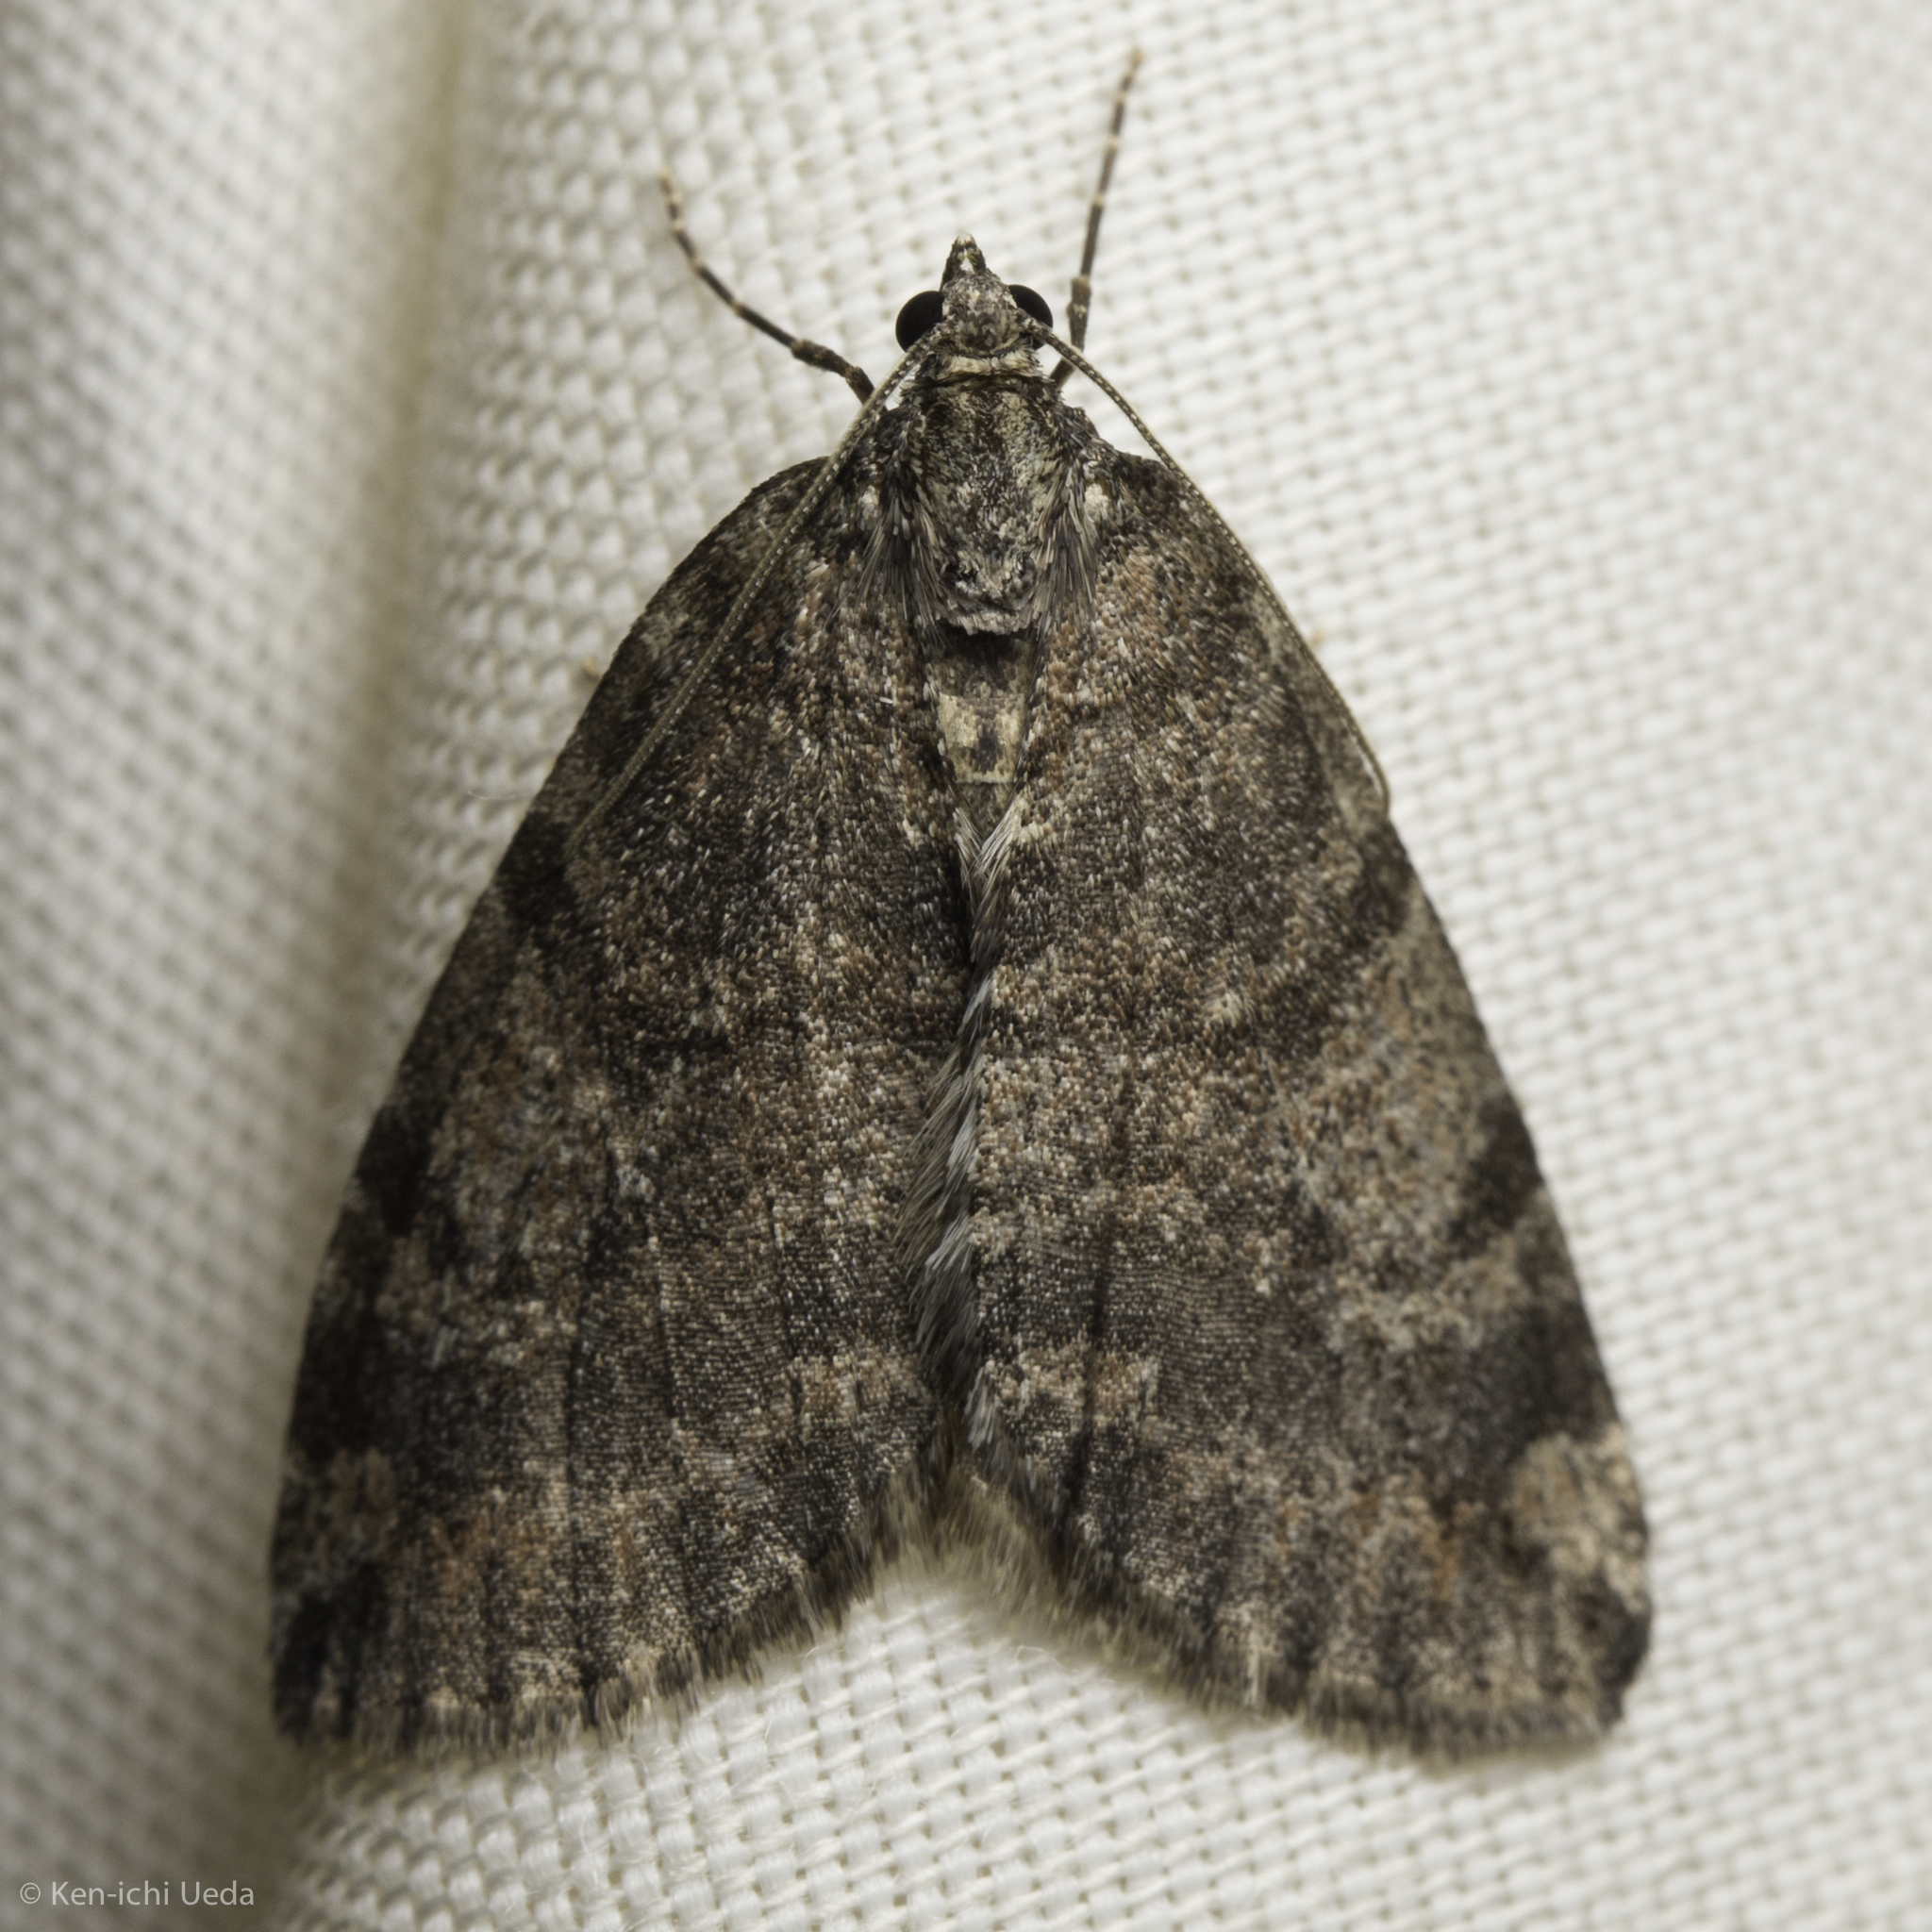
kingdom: Animalia
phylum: Arthropoda
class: Insecta
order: Lepidoptera
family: Geometridae
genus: Hydriomena
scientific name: Hydriomena nubilofasciata
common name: Oak winter highflier moth
